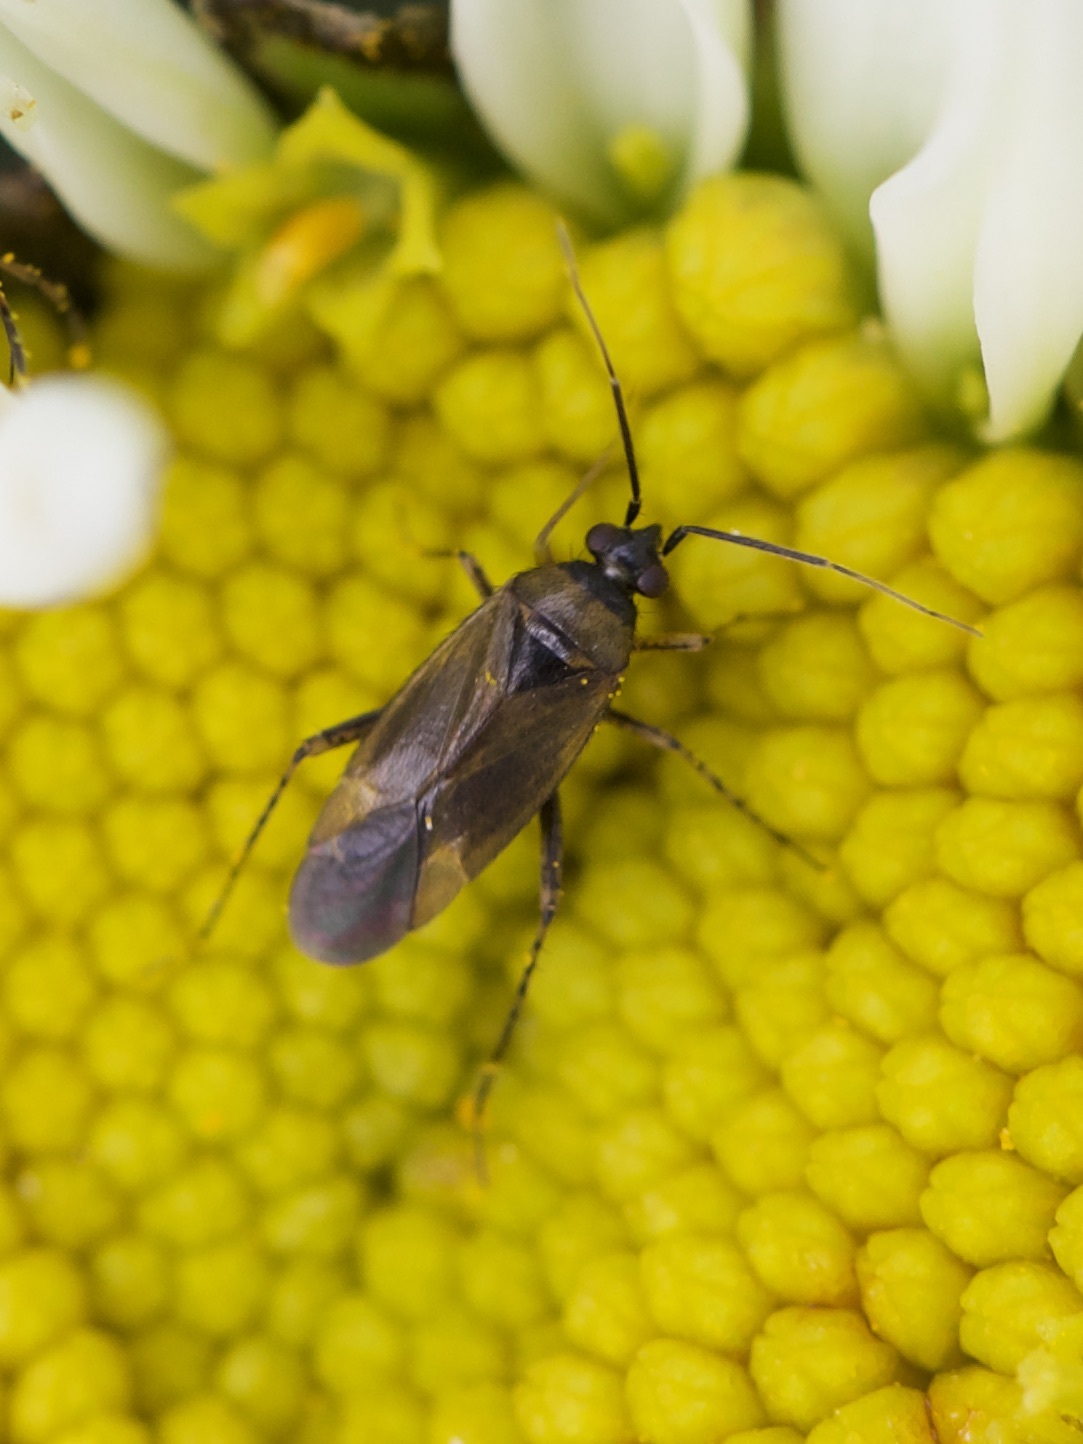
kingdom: Animalia
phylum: Arthropoda
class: Insecta
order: Hemiptera
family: Miridae
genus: Plagiognathus
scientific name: Plagiognathus arbustorum
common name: Plant bug
